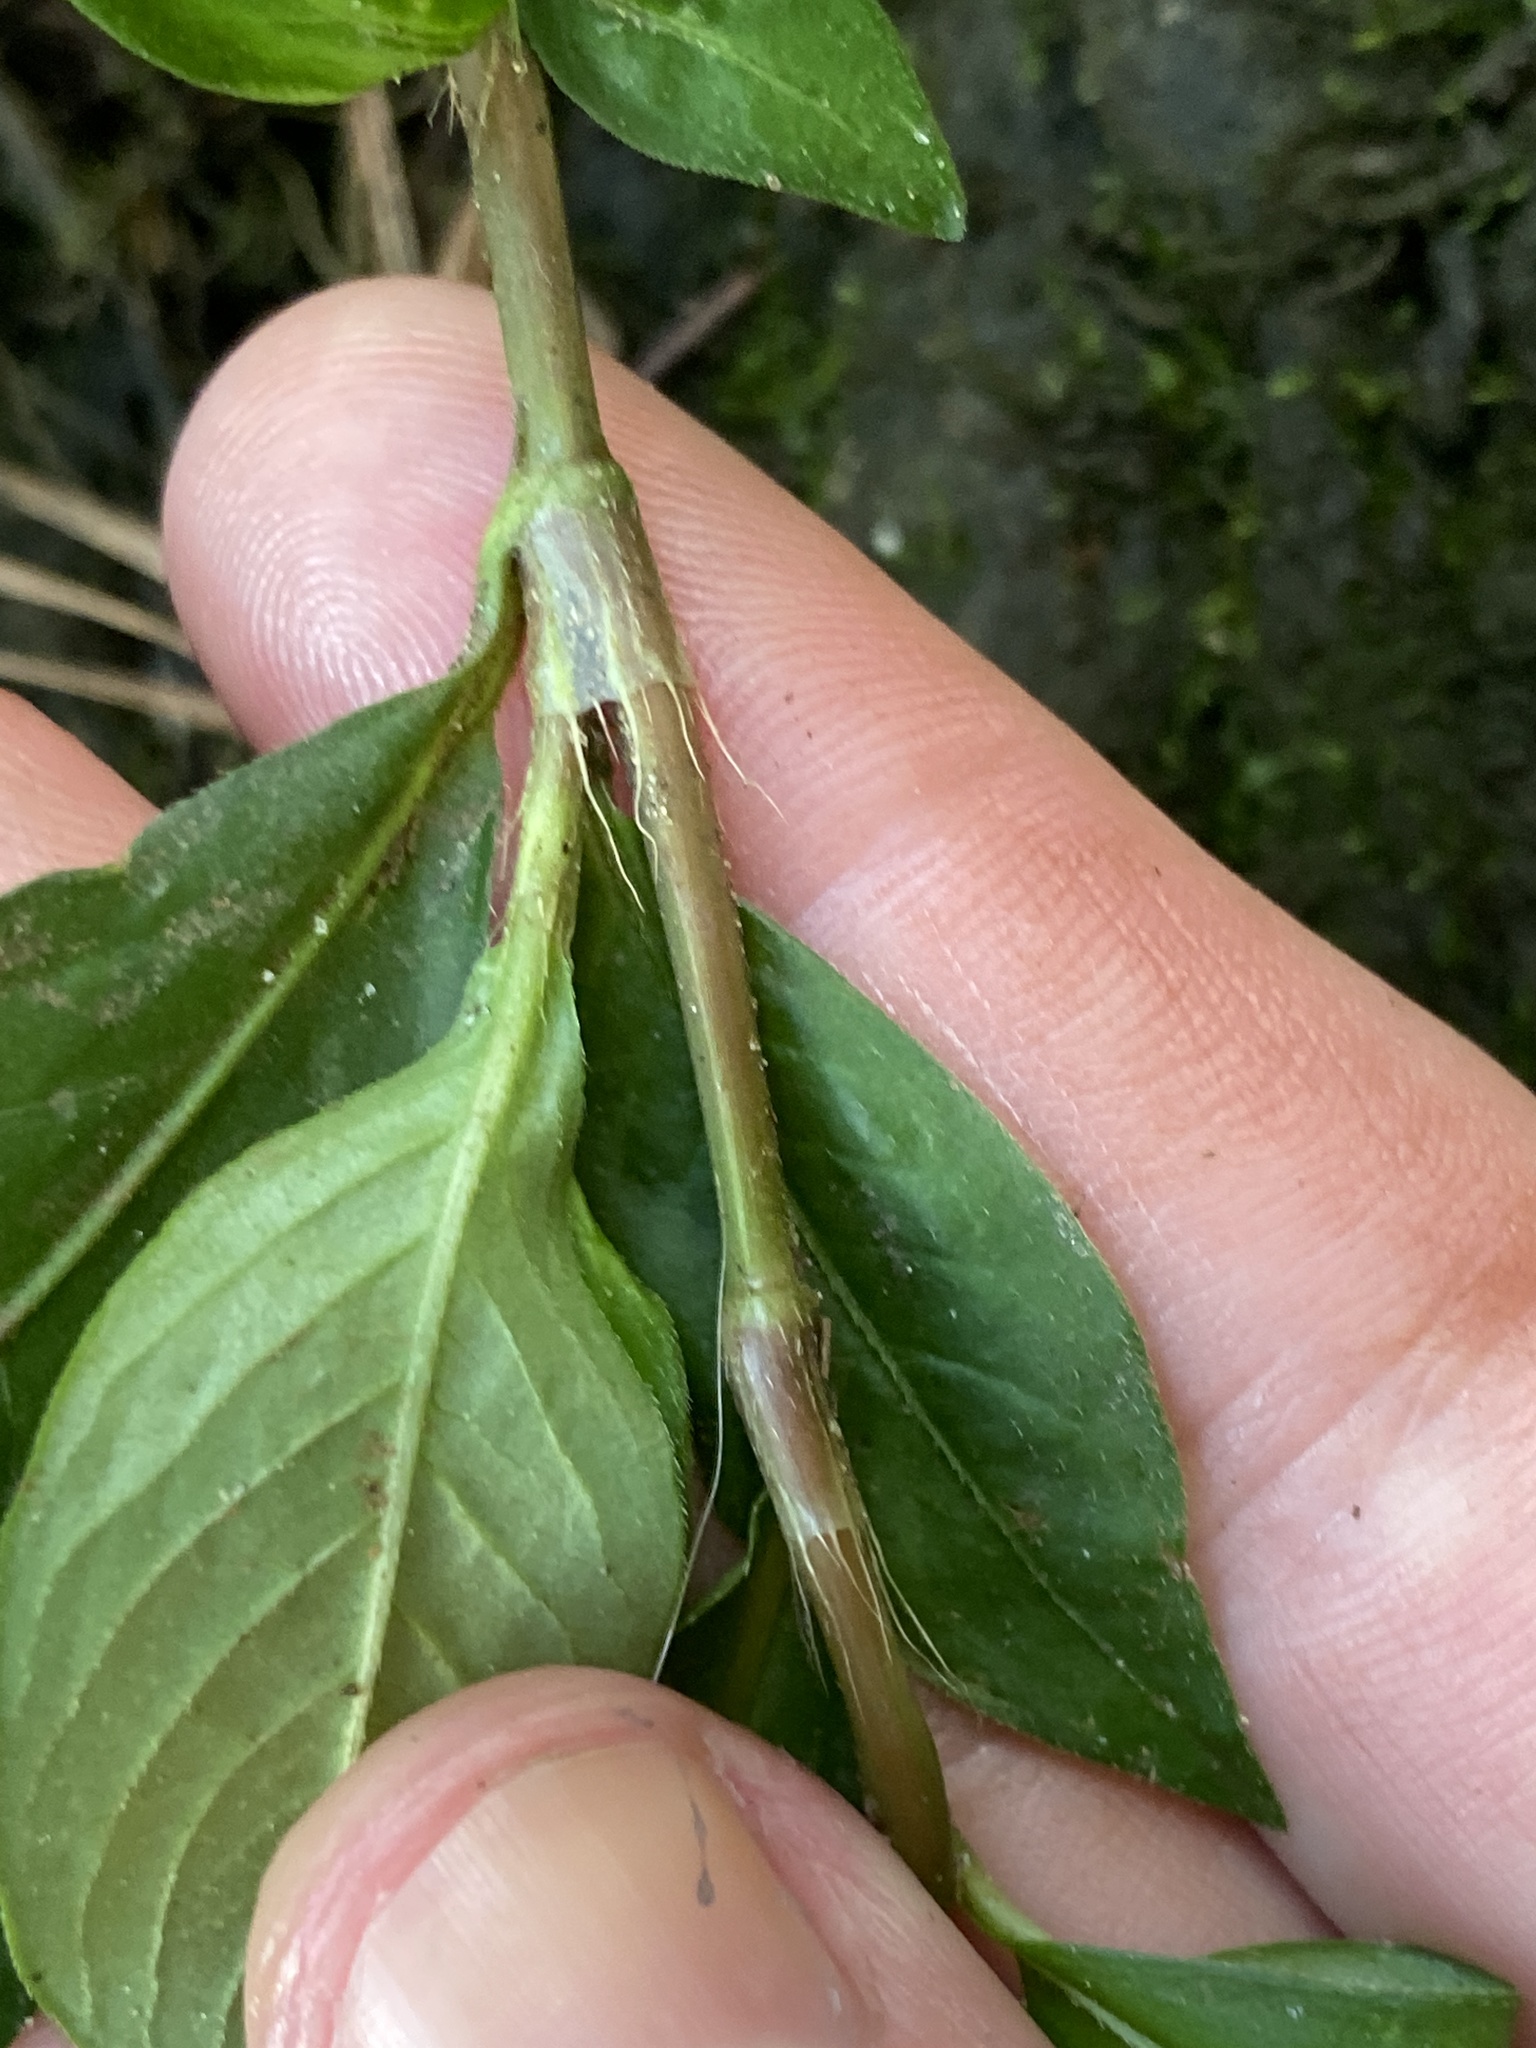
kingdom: Plantae
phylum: Tracheophyta
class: Magnoliopsida
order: Caryophyllales
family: Polygonaceae
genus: Persicaria
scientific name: Persicaria longiseta
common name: Bristly lady's-thumb
